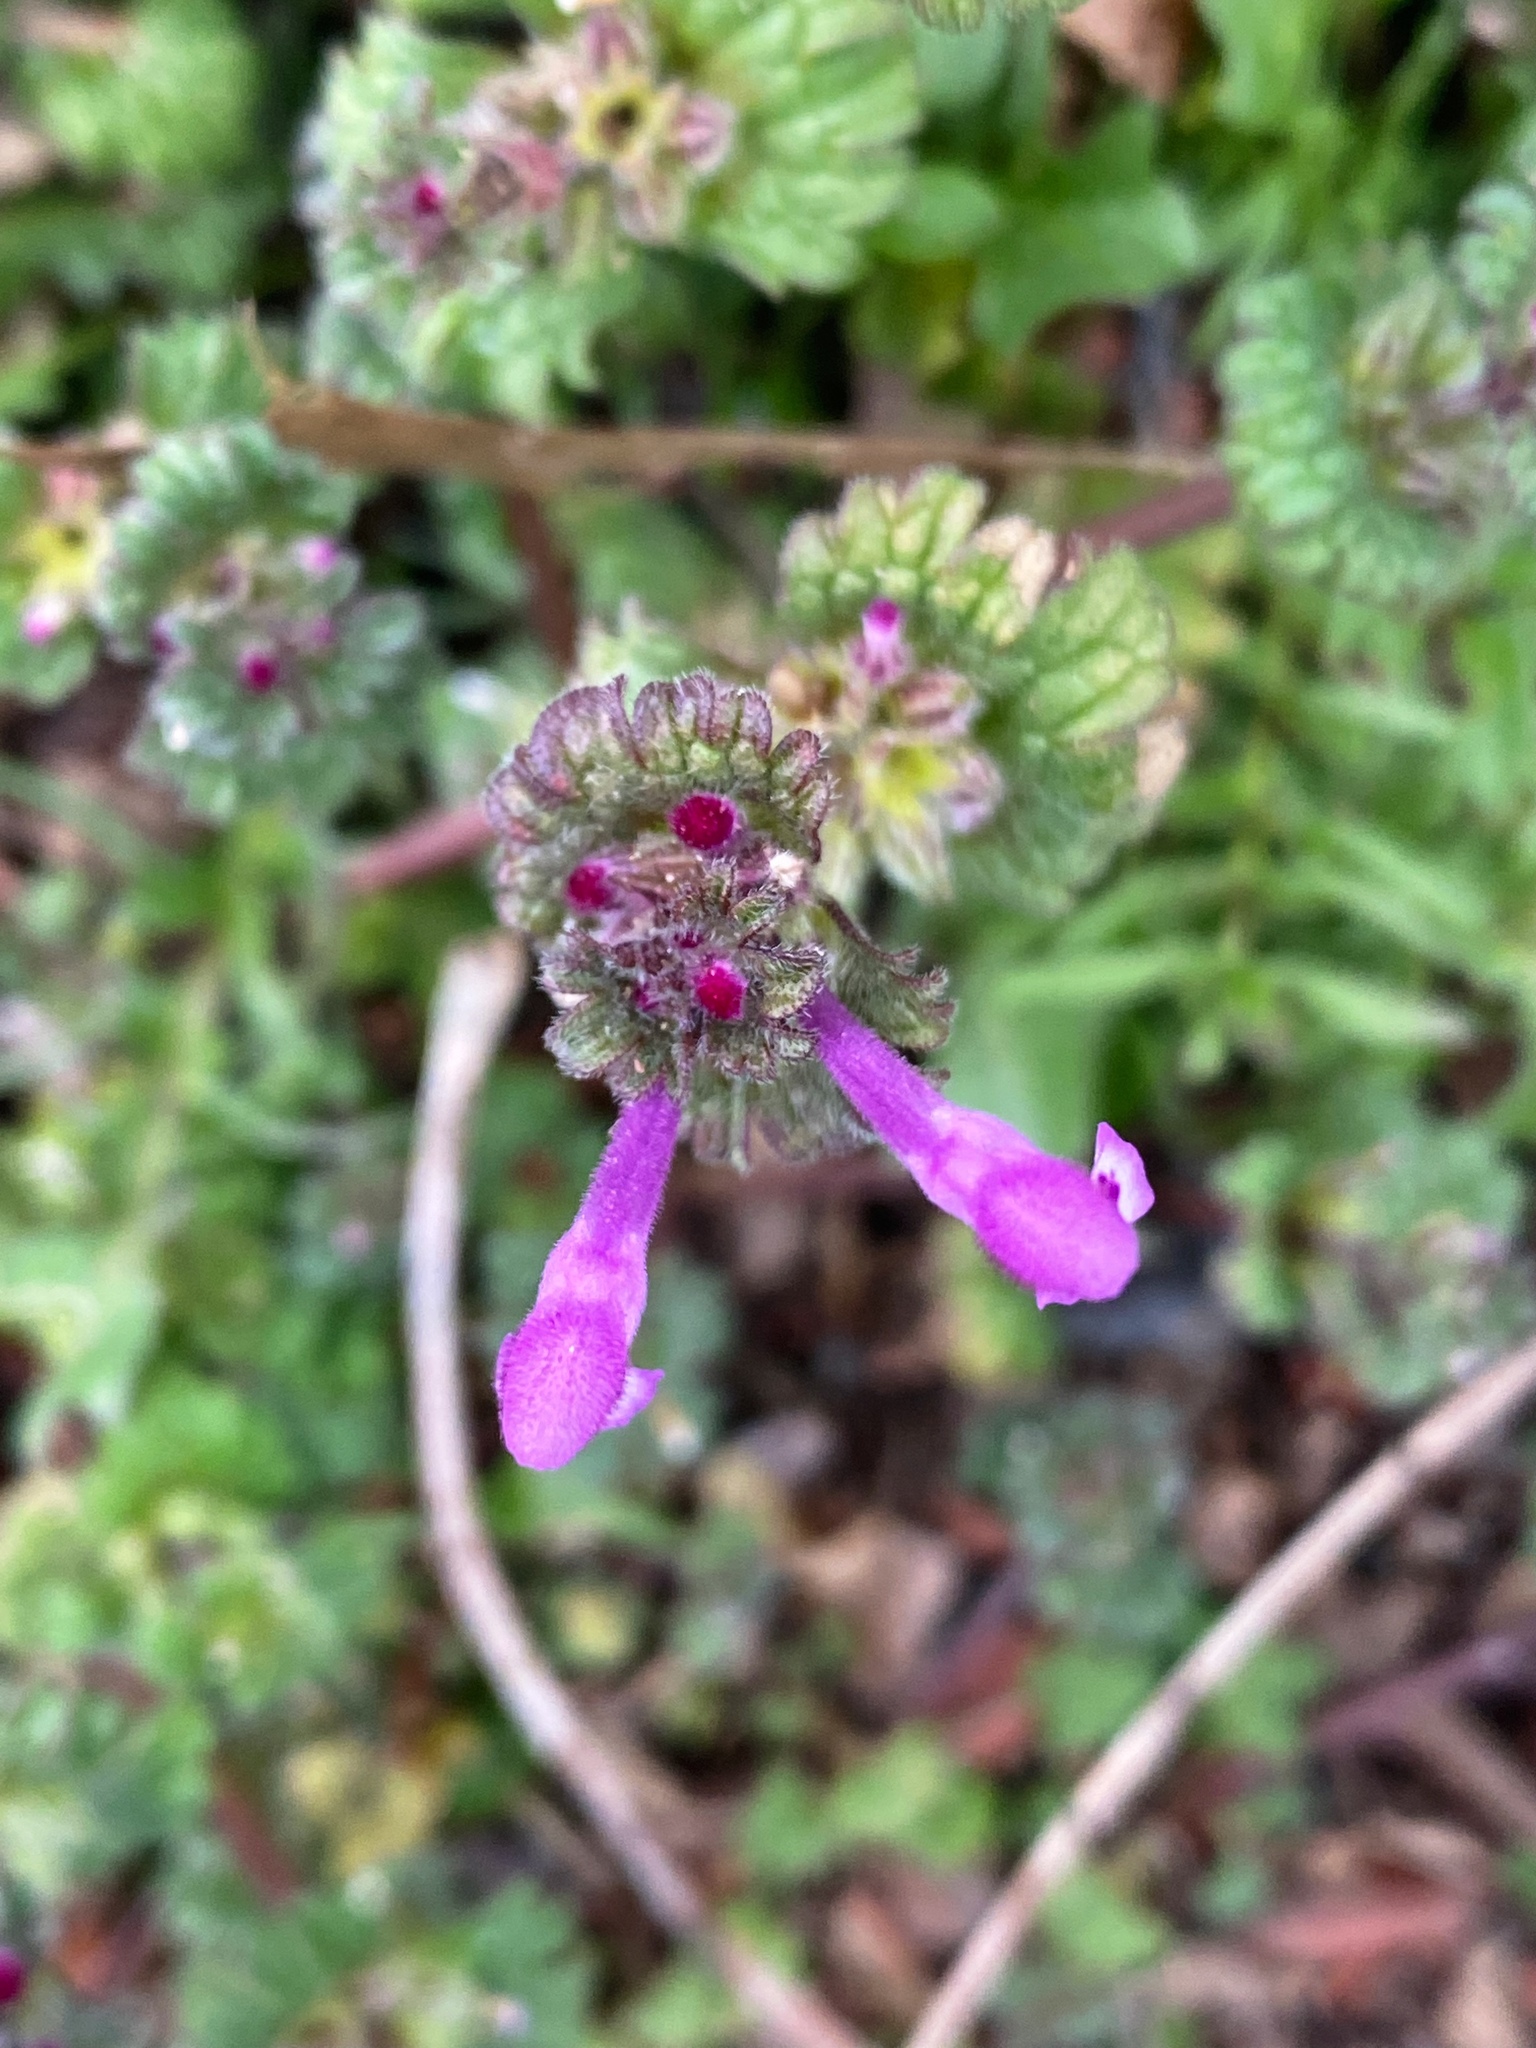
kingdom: Plantae
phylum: Tracheophyta
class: Magnoliopsida
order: Lamiales
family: Lamiaceae
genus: Lamium
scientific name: Lamium amplexicaule
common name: Henbit dead-nettle
